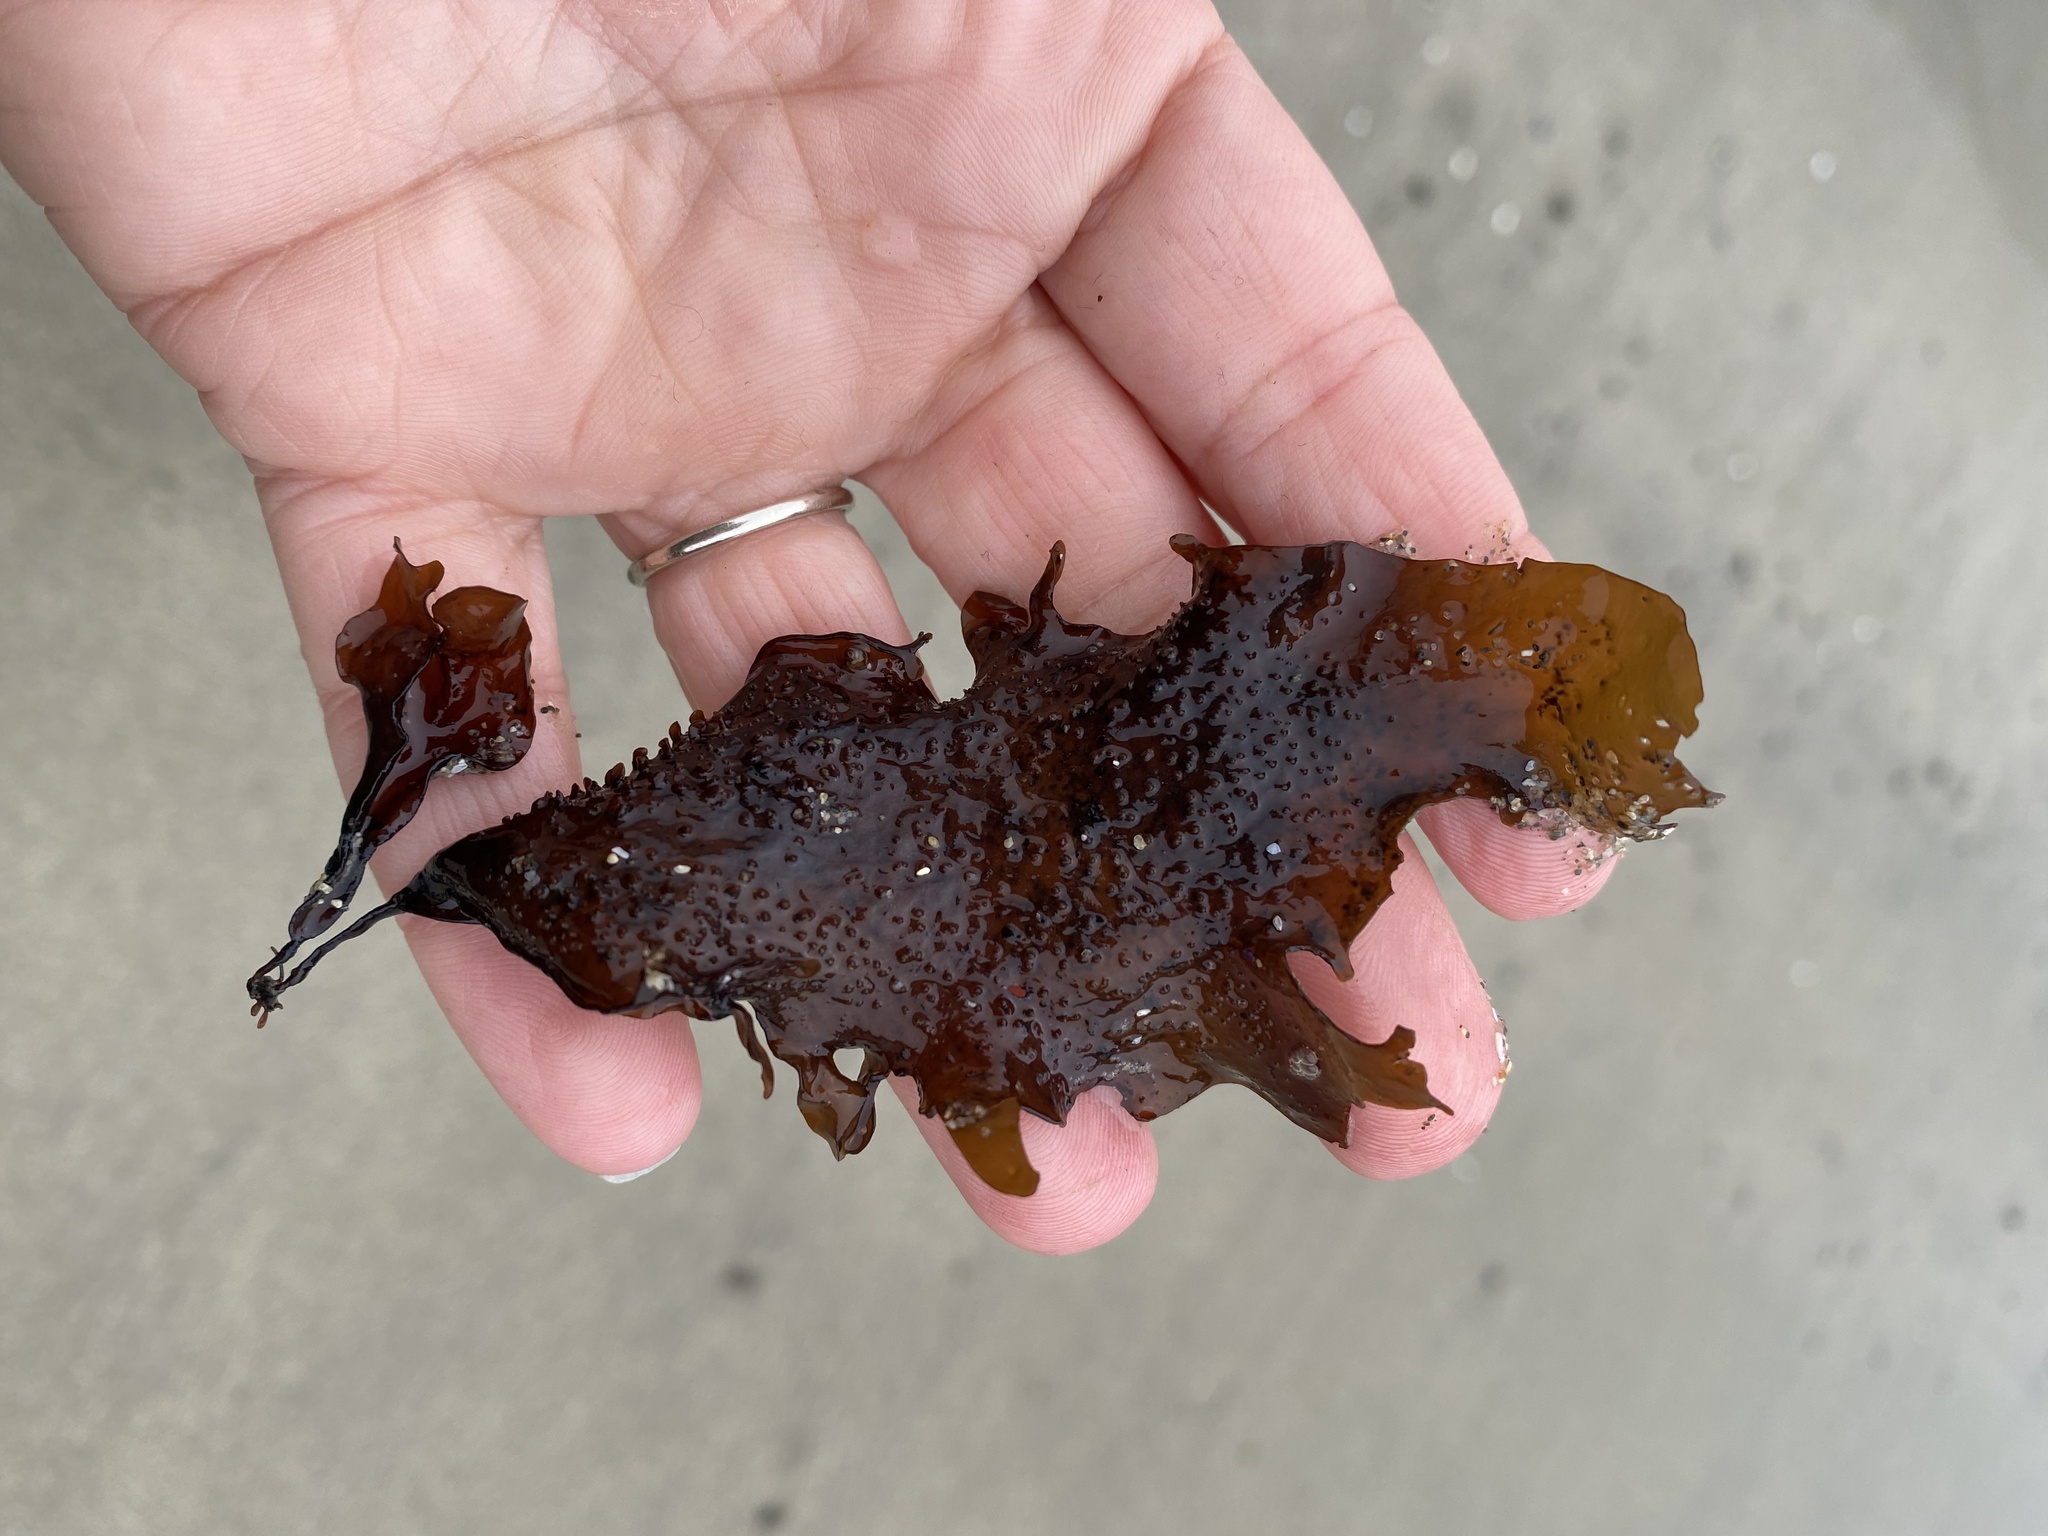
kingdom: Plantae
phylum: Rhodophyta
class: Florideophyceae
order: Gigartinales
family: Phyllophoraceae
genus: Mastocarpus
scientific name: Mastocarpus papillatus
